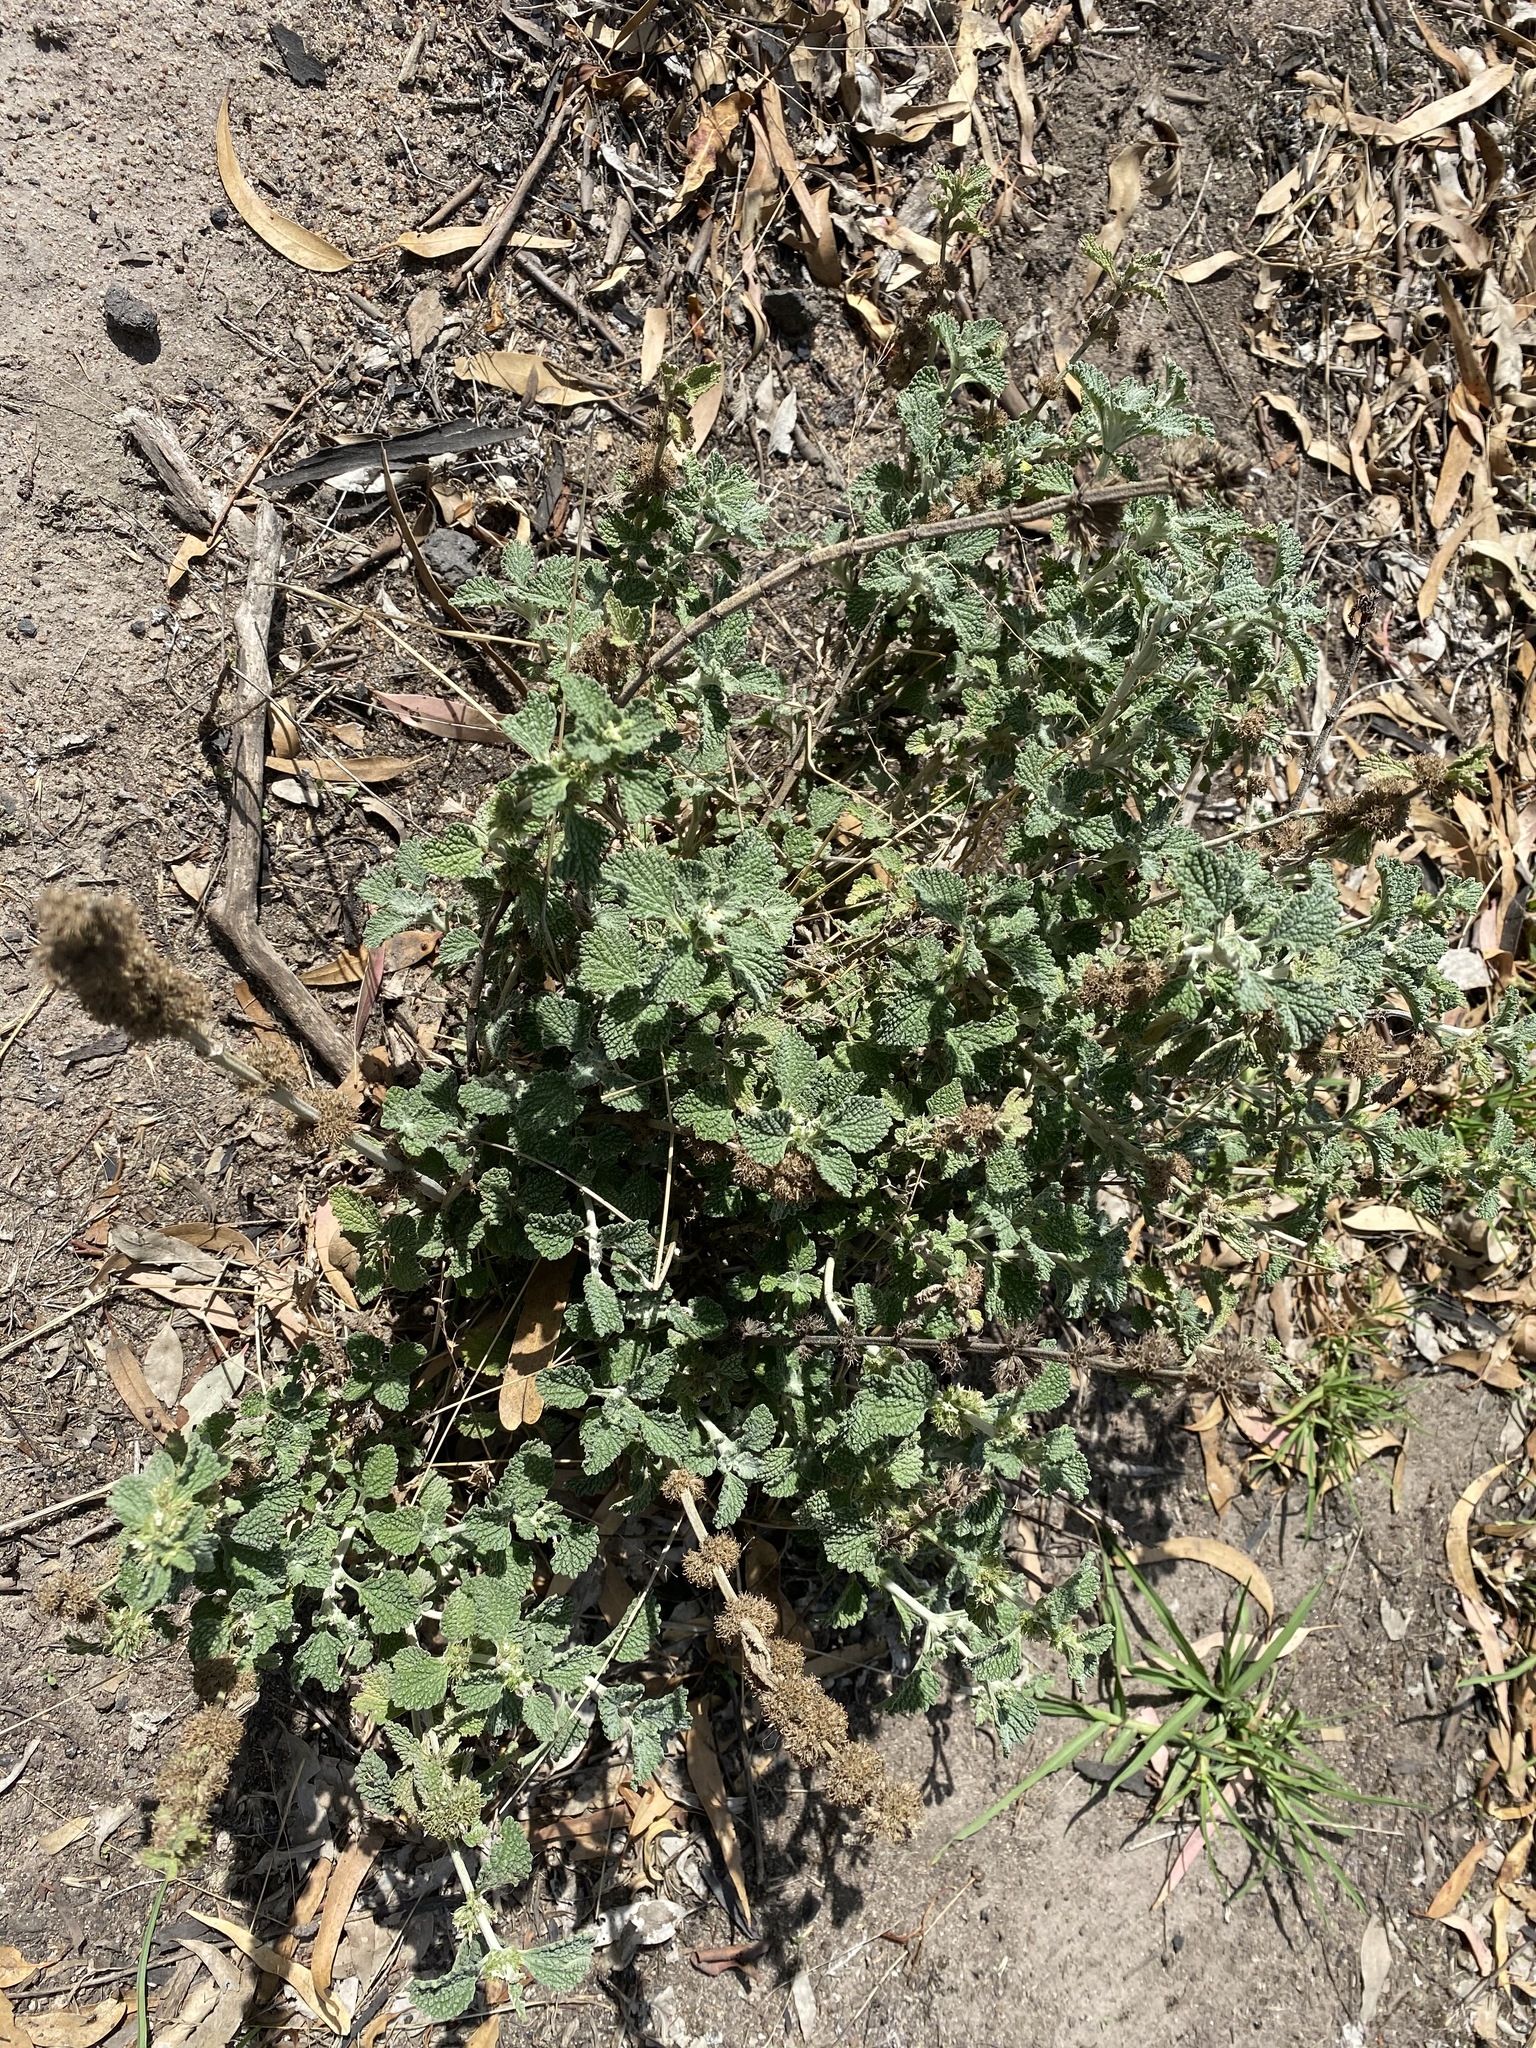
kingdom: Plantae
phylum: Tracheophyta
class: Magnoliopsida
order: Lamiales
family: Lamiaceae
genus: Marrubium
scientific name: Marrubium vulgare
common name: Horehound
